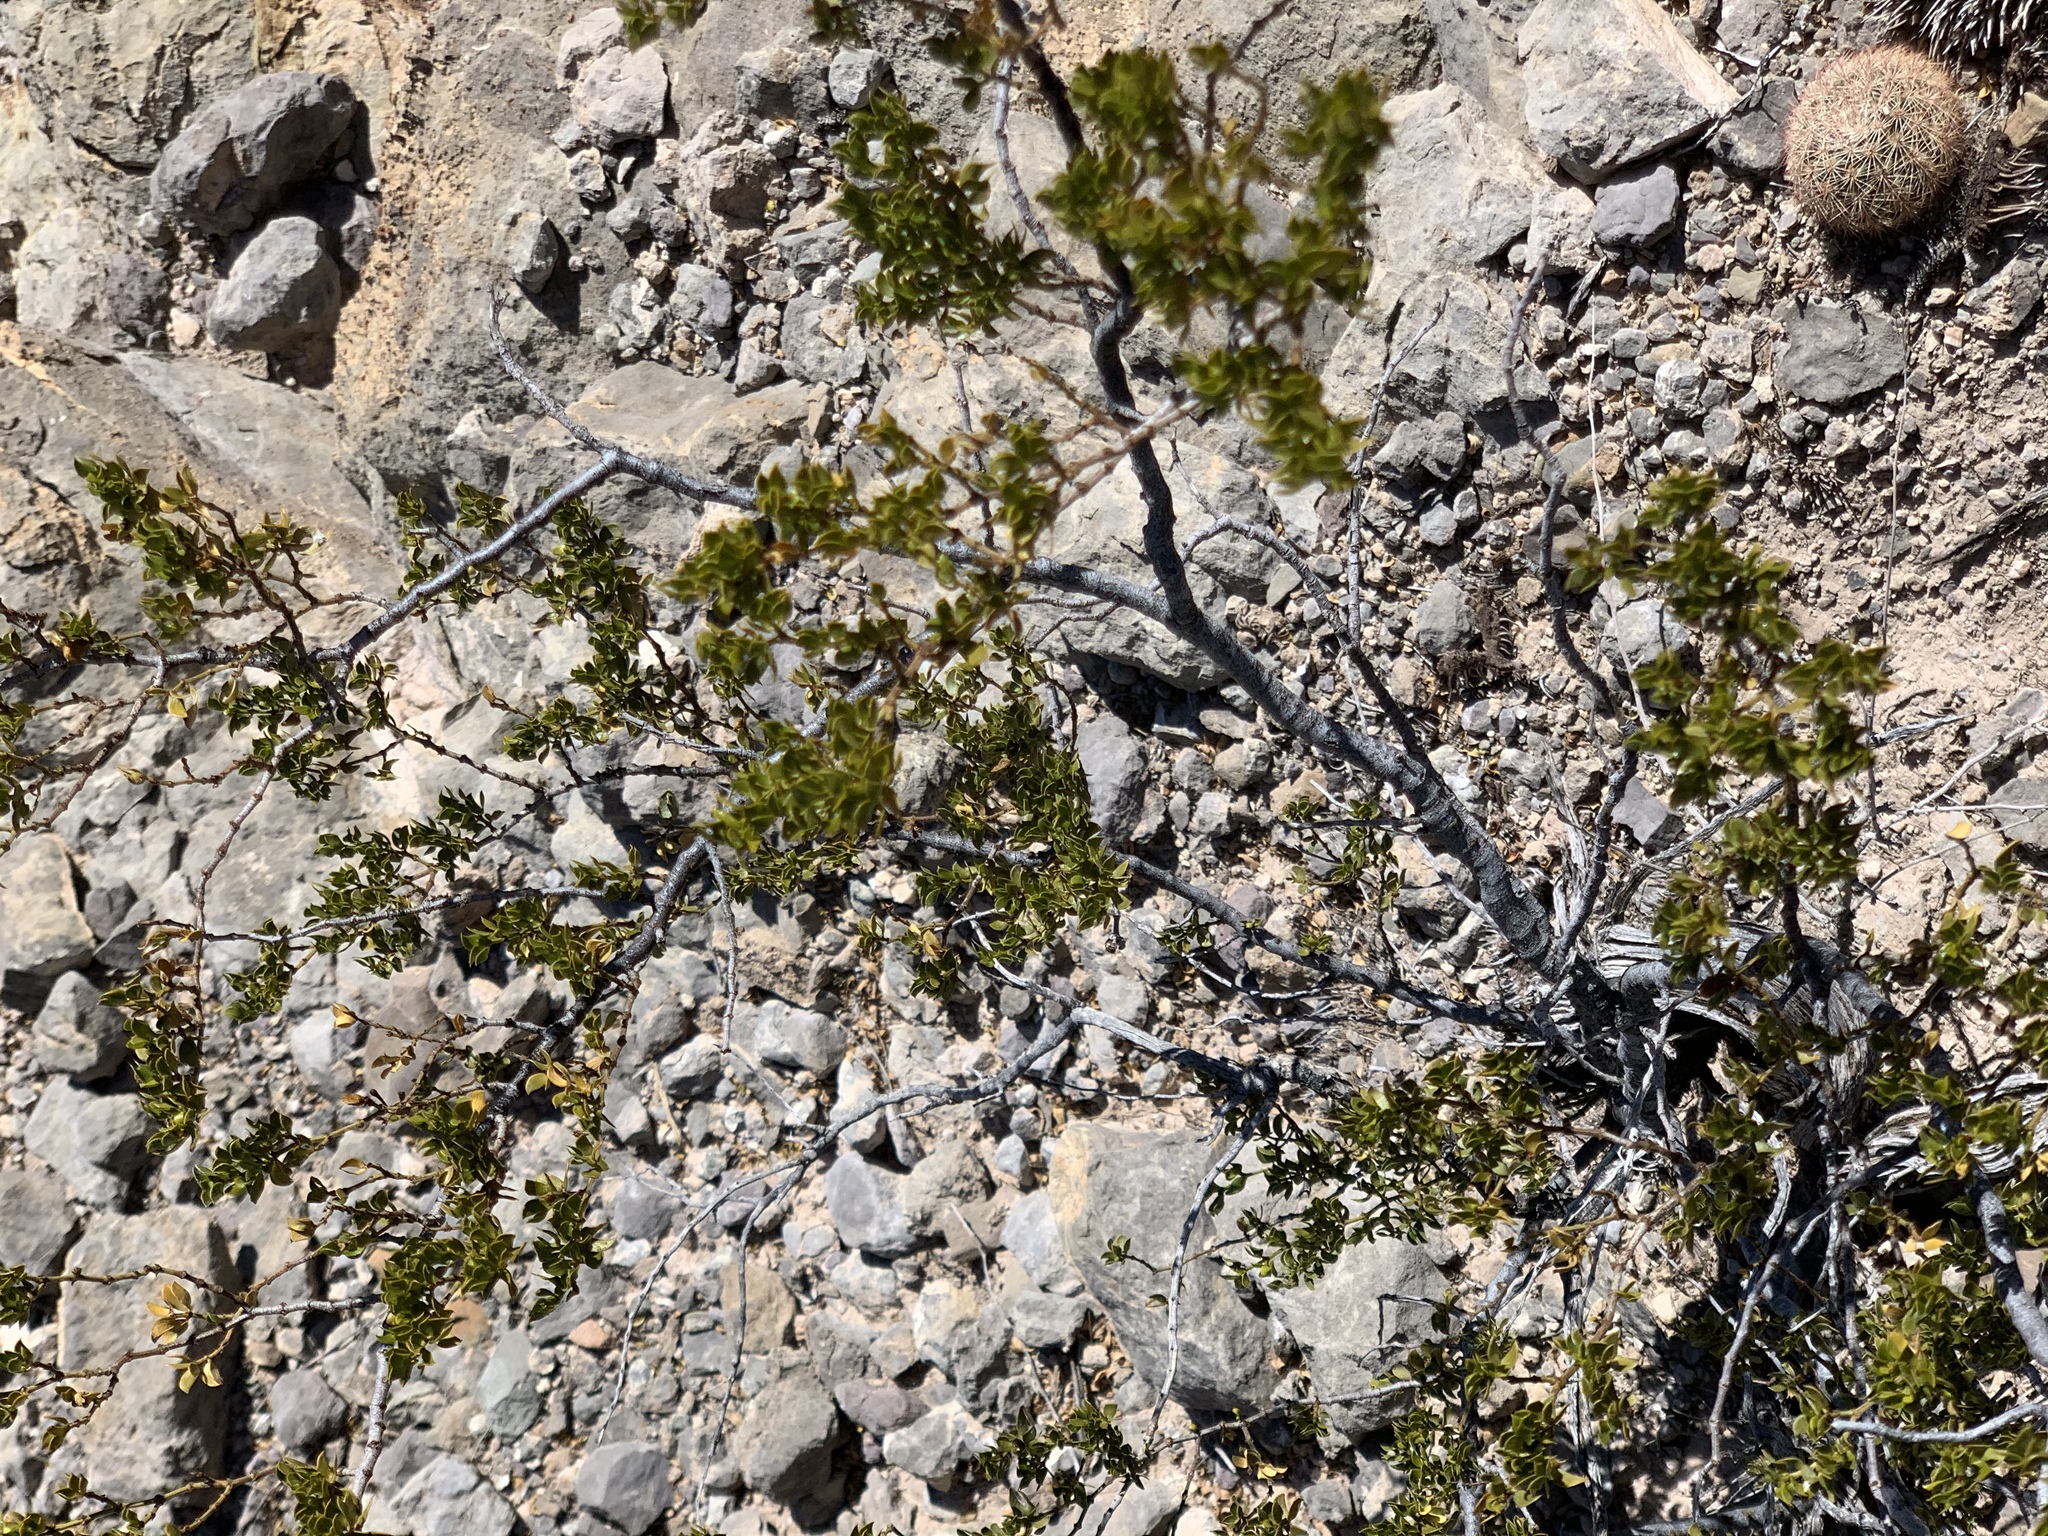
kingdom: Plantae
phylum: Tracheophyta
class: Magnoliopsida
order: Zygophyllales
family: Zygophyllaceae
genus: Larrea
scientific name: Larrea tridentata
